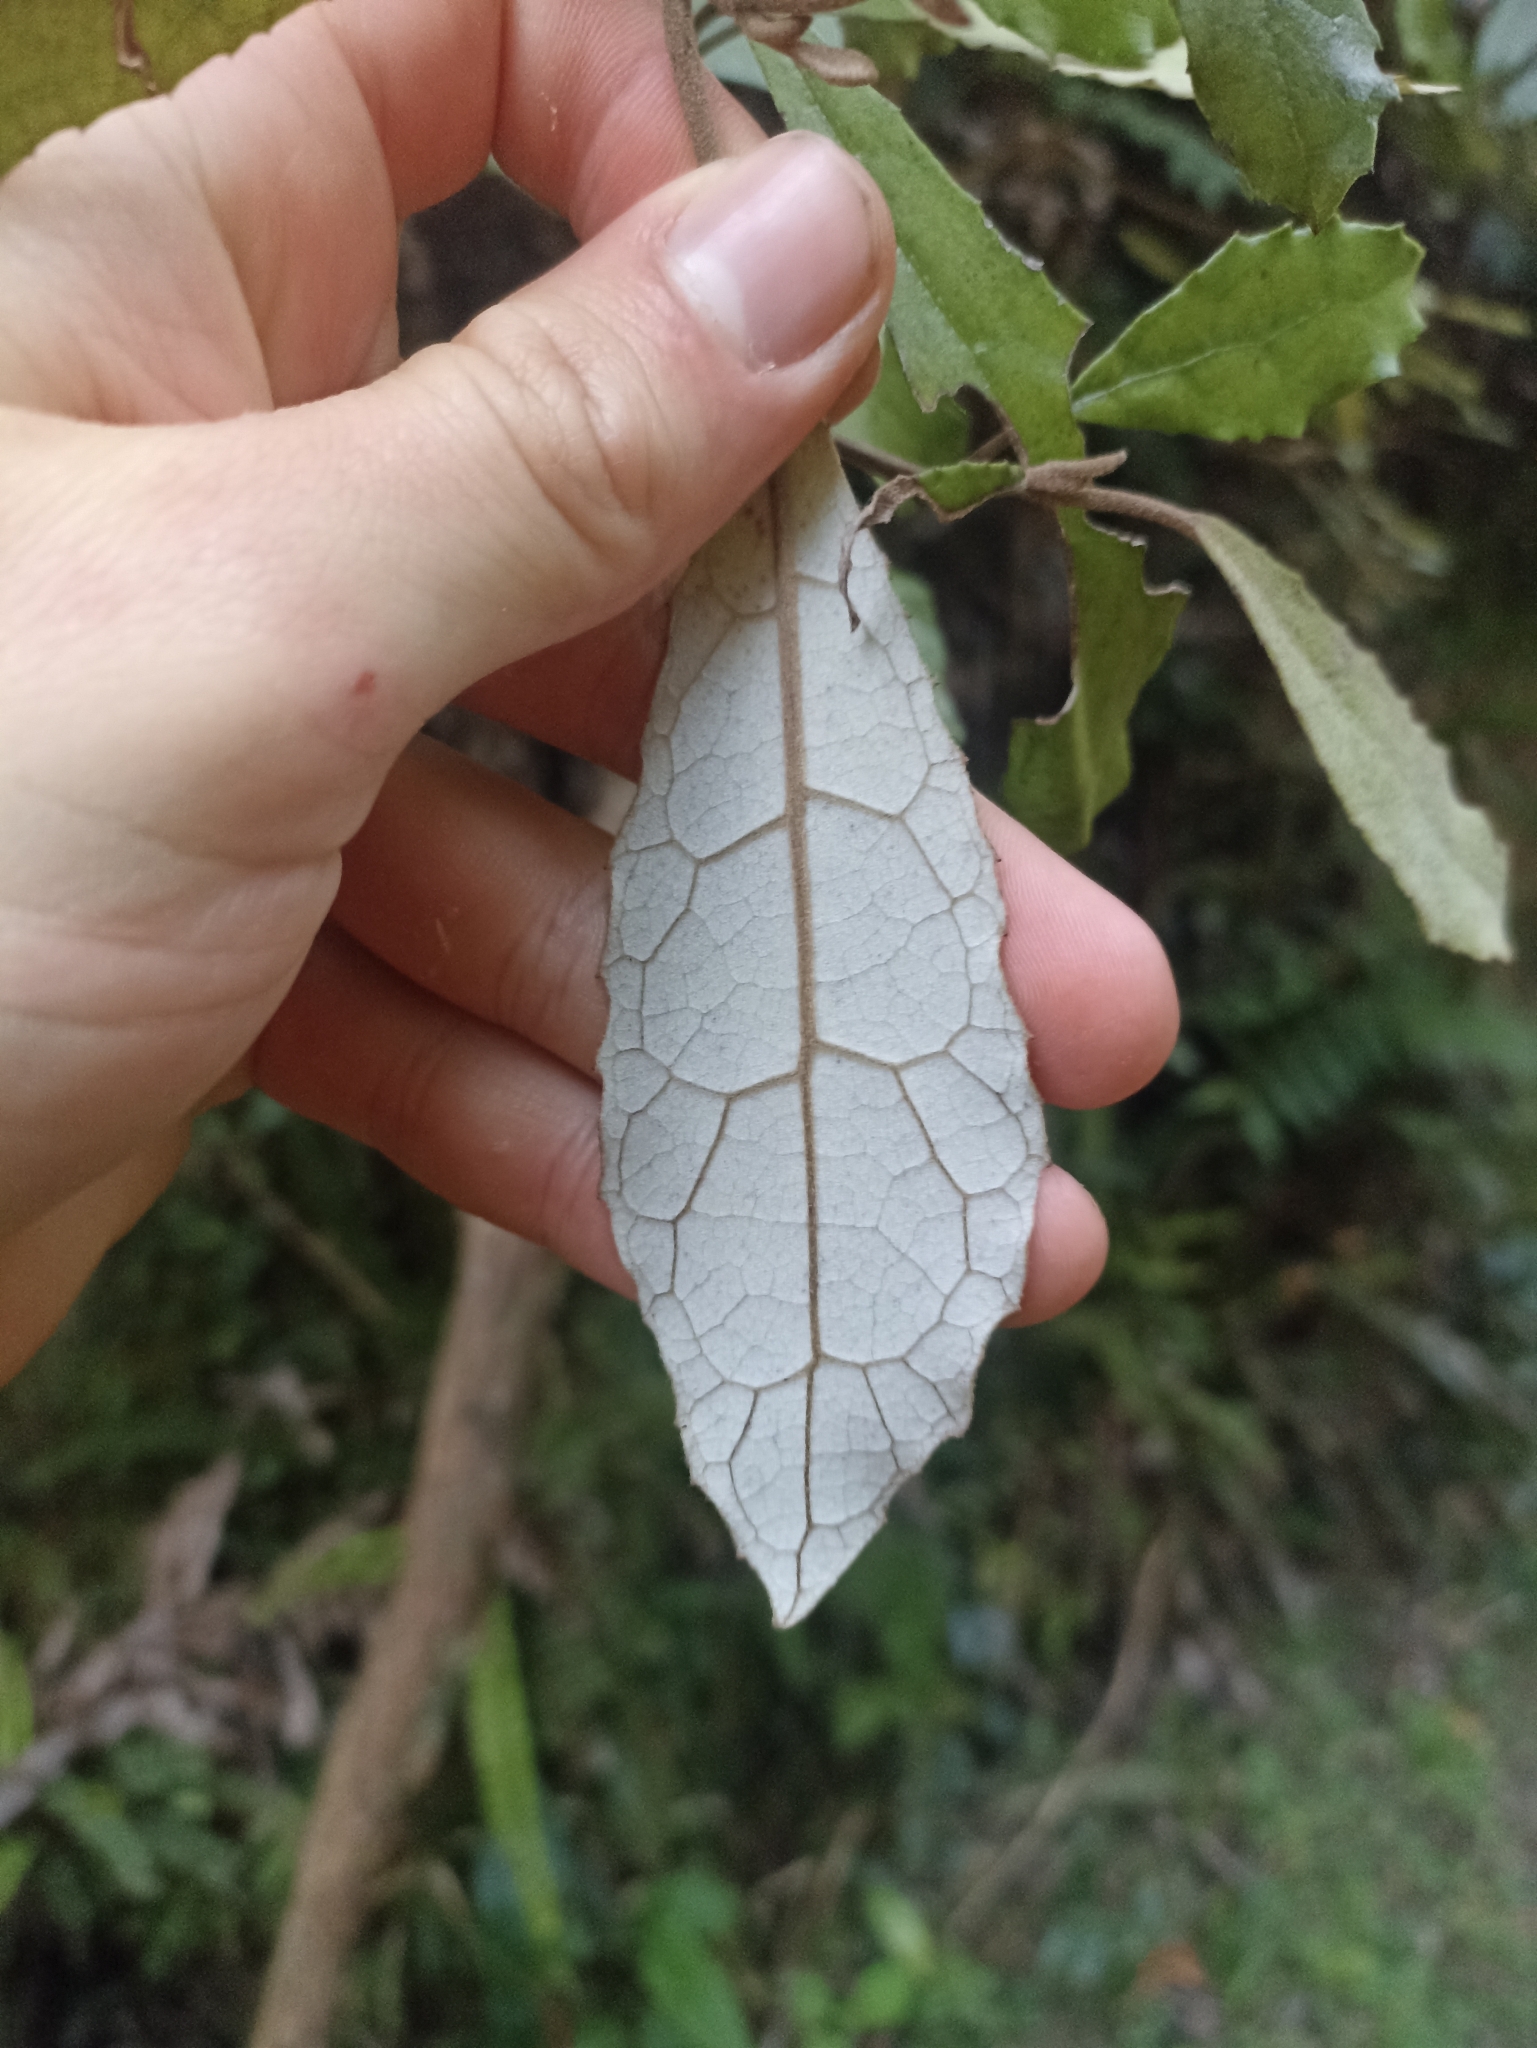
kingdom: Plantae
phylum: Tracheophyta
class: Magnoliopsida
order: Asterales
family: Asteraceae
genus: Olearia
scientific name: Olearia rani
